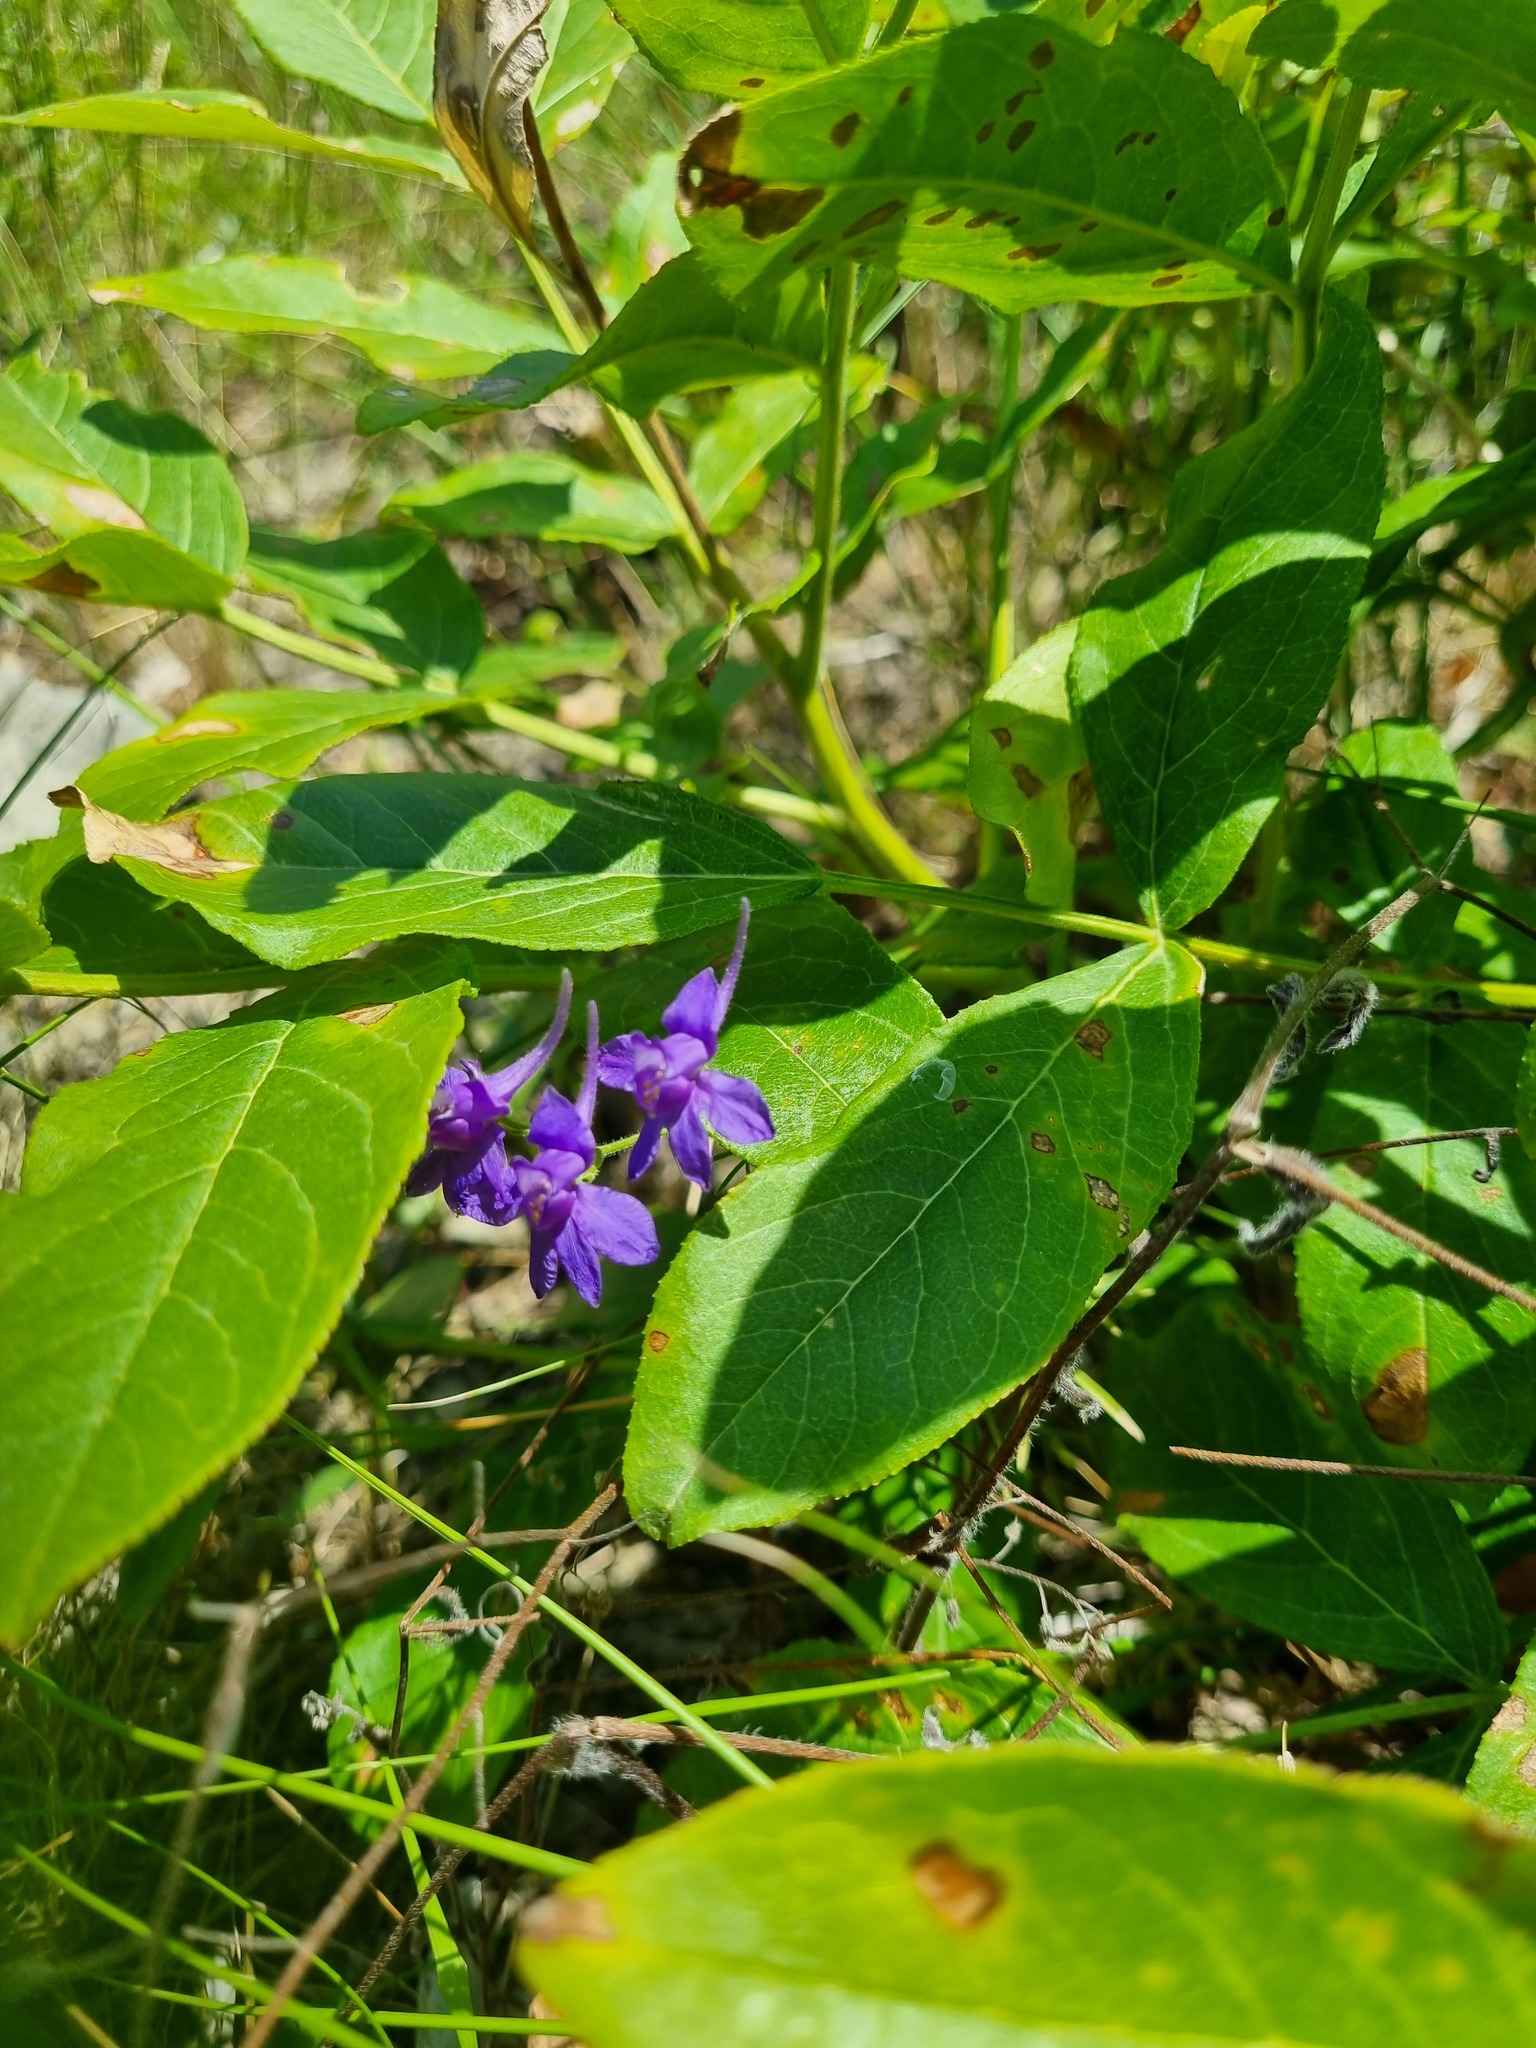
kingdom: Plantae
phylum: Tracheophyta
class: Magnoliopsida
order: Ranunculales
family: Ranunculaceae
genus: Delphinium
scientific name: Delphinium consolida
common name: Branching larkspur
